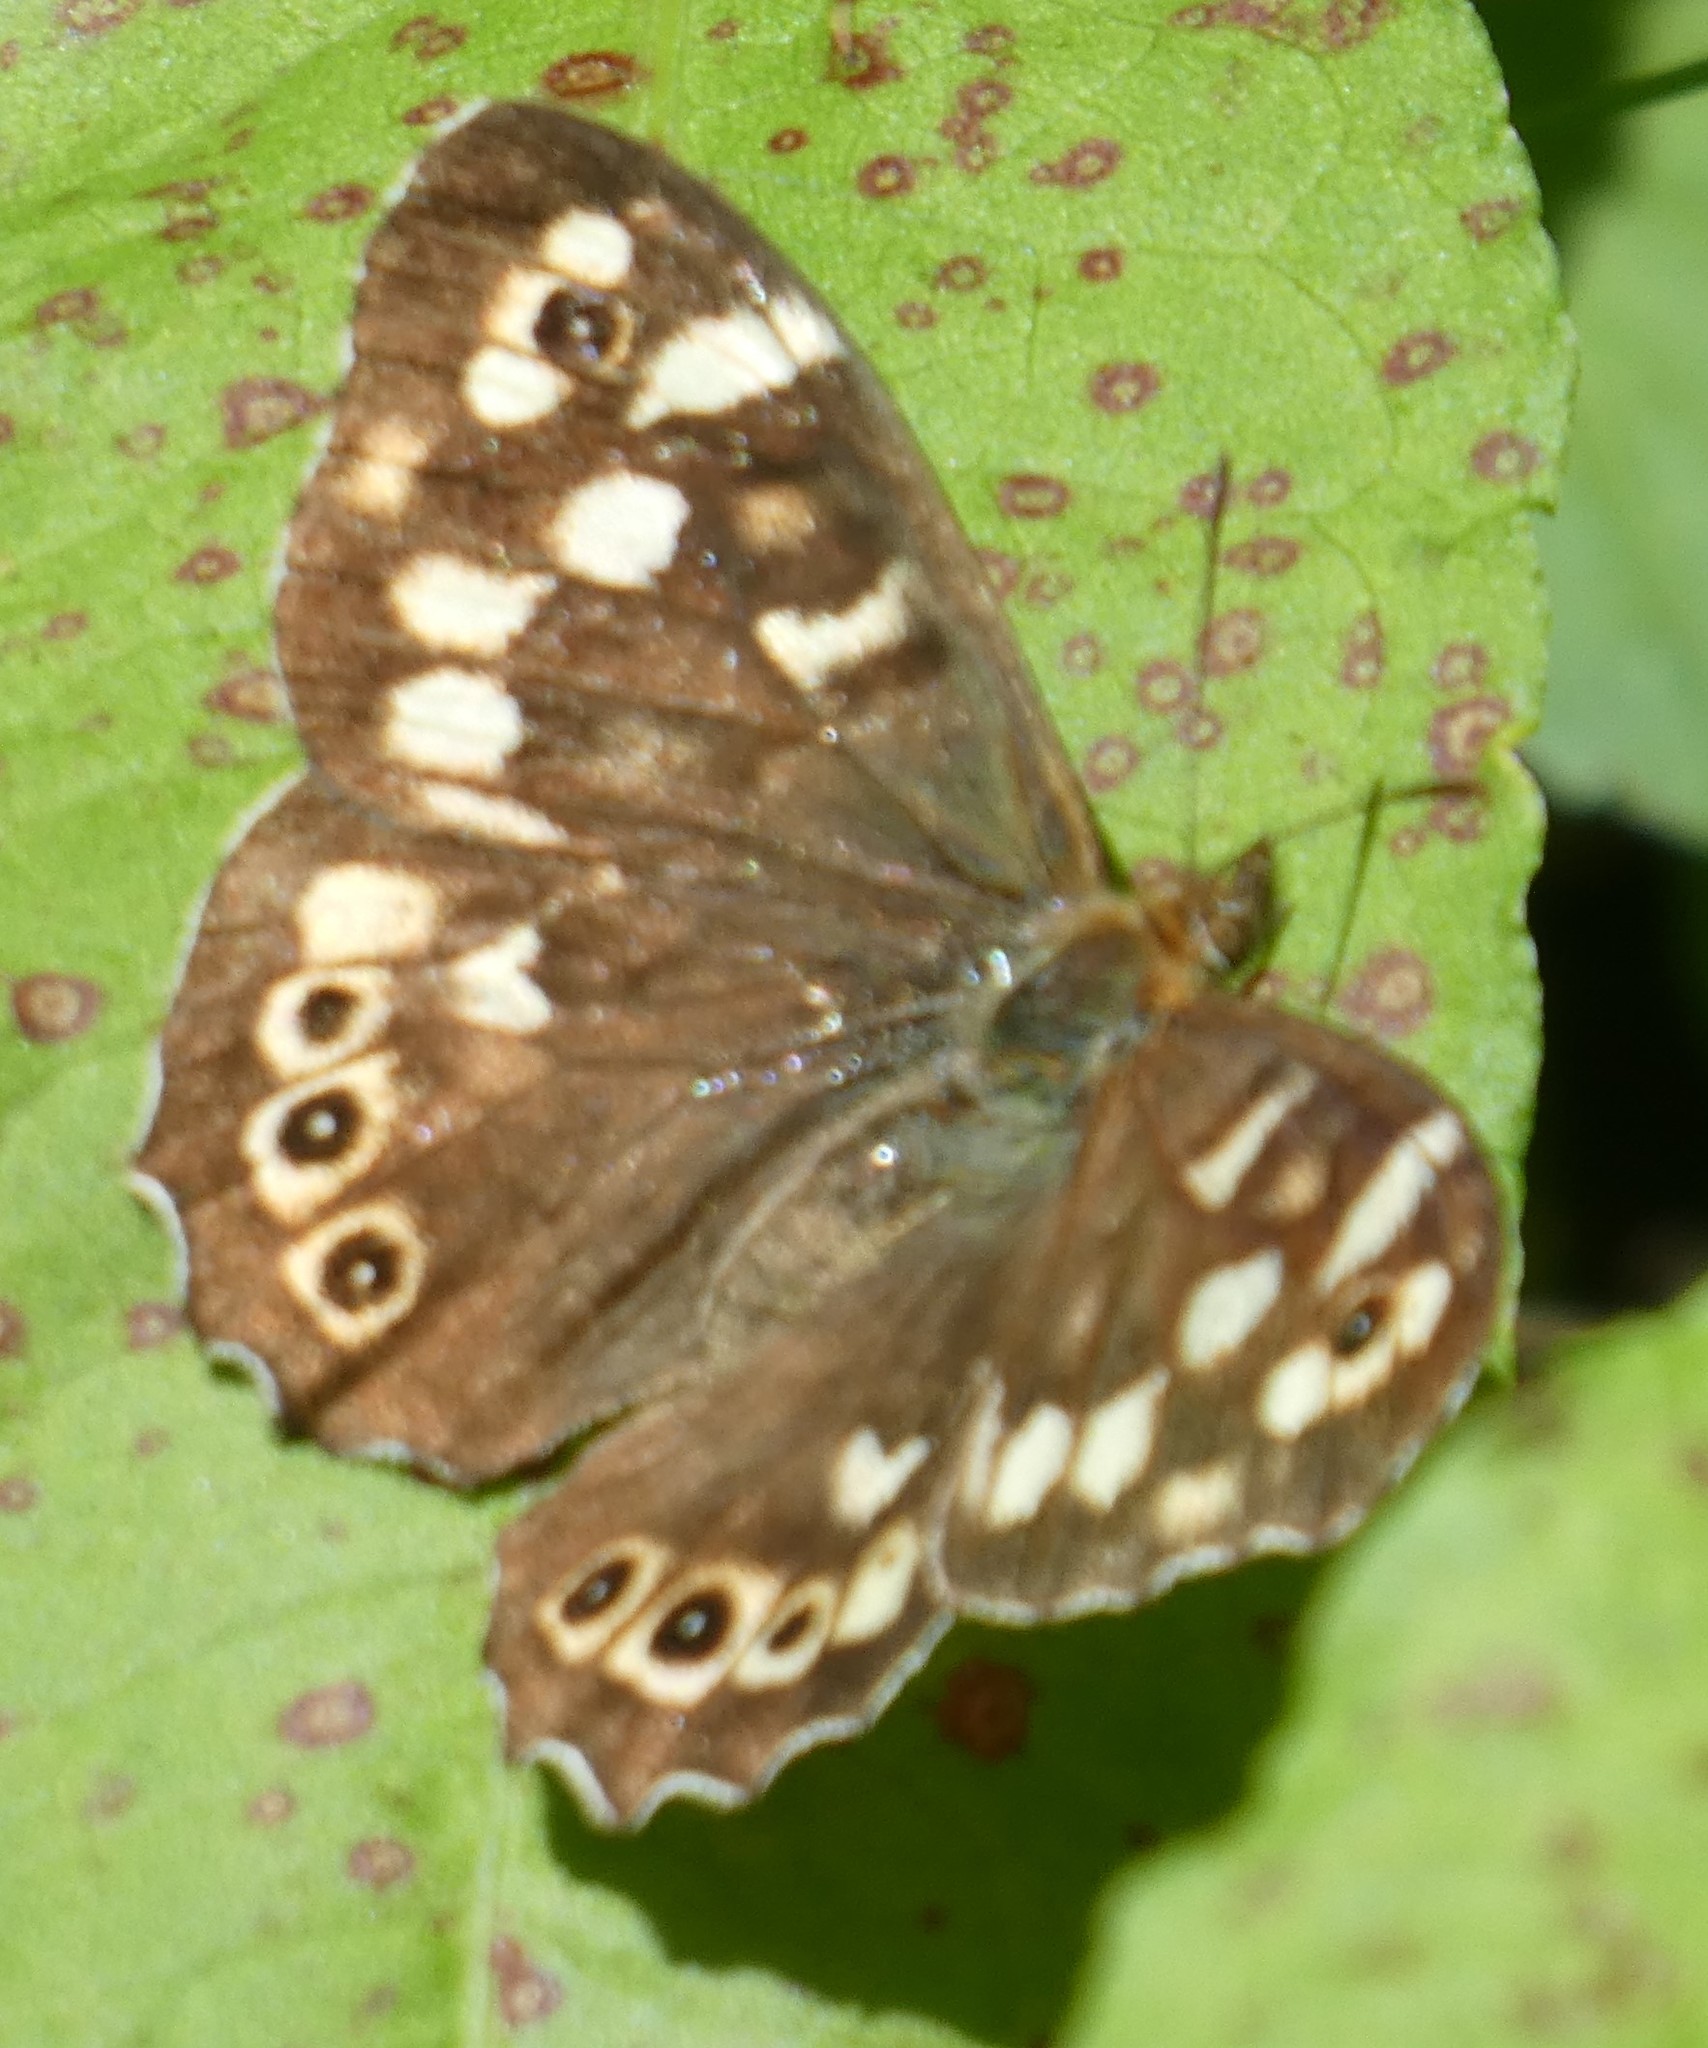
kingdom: Animalia
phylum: Arthropoda
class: Insecta
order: Lepidoptera
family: Nymphalidae
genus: Pararge
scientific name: Pararge aegeria
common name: Speckled wood
